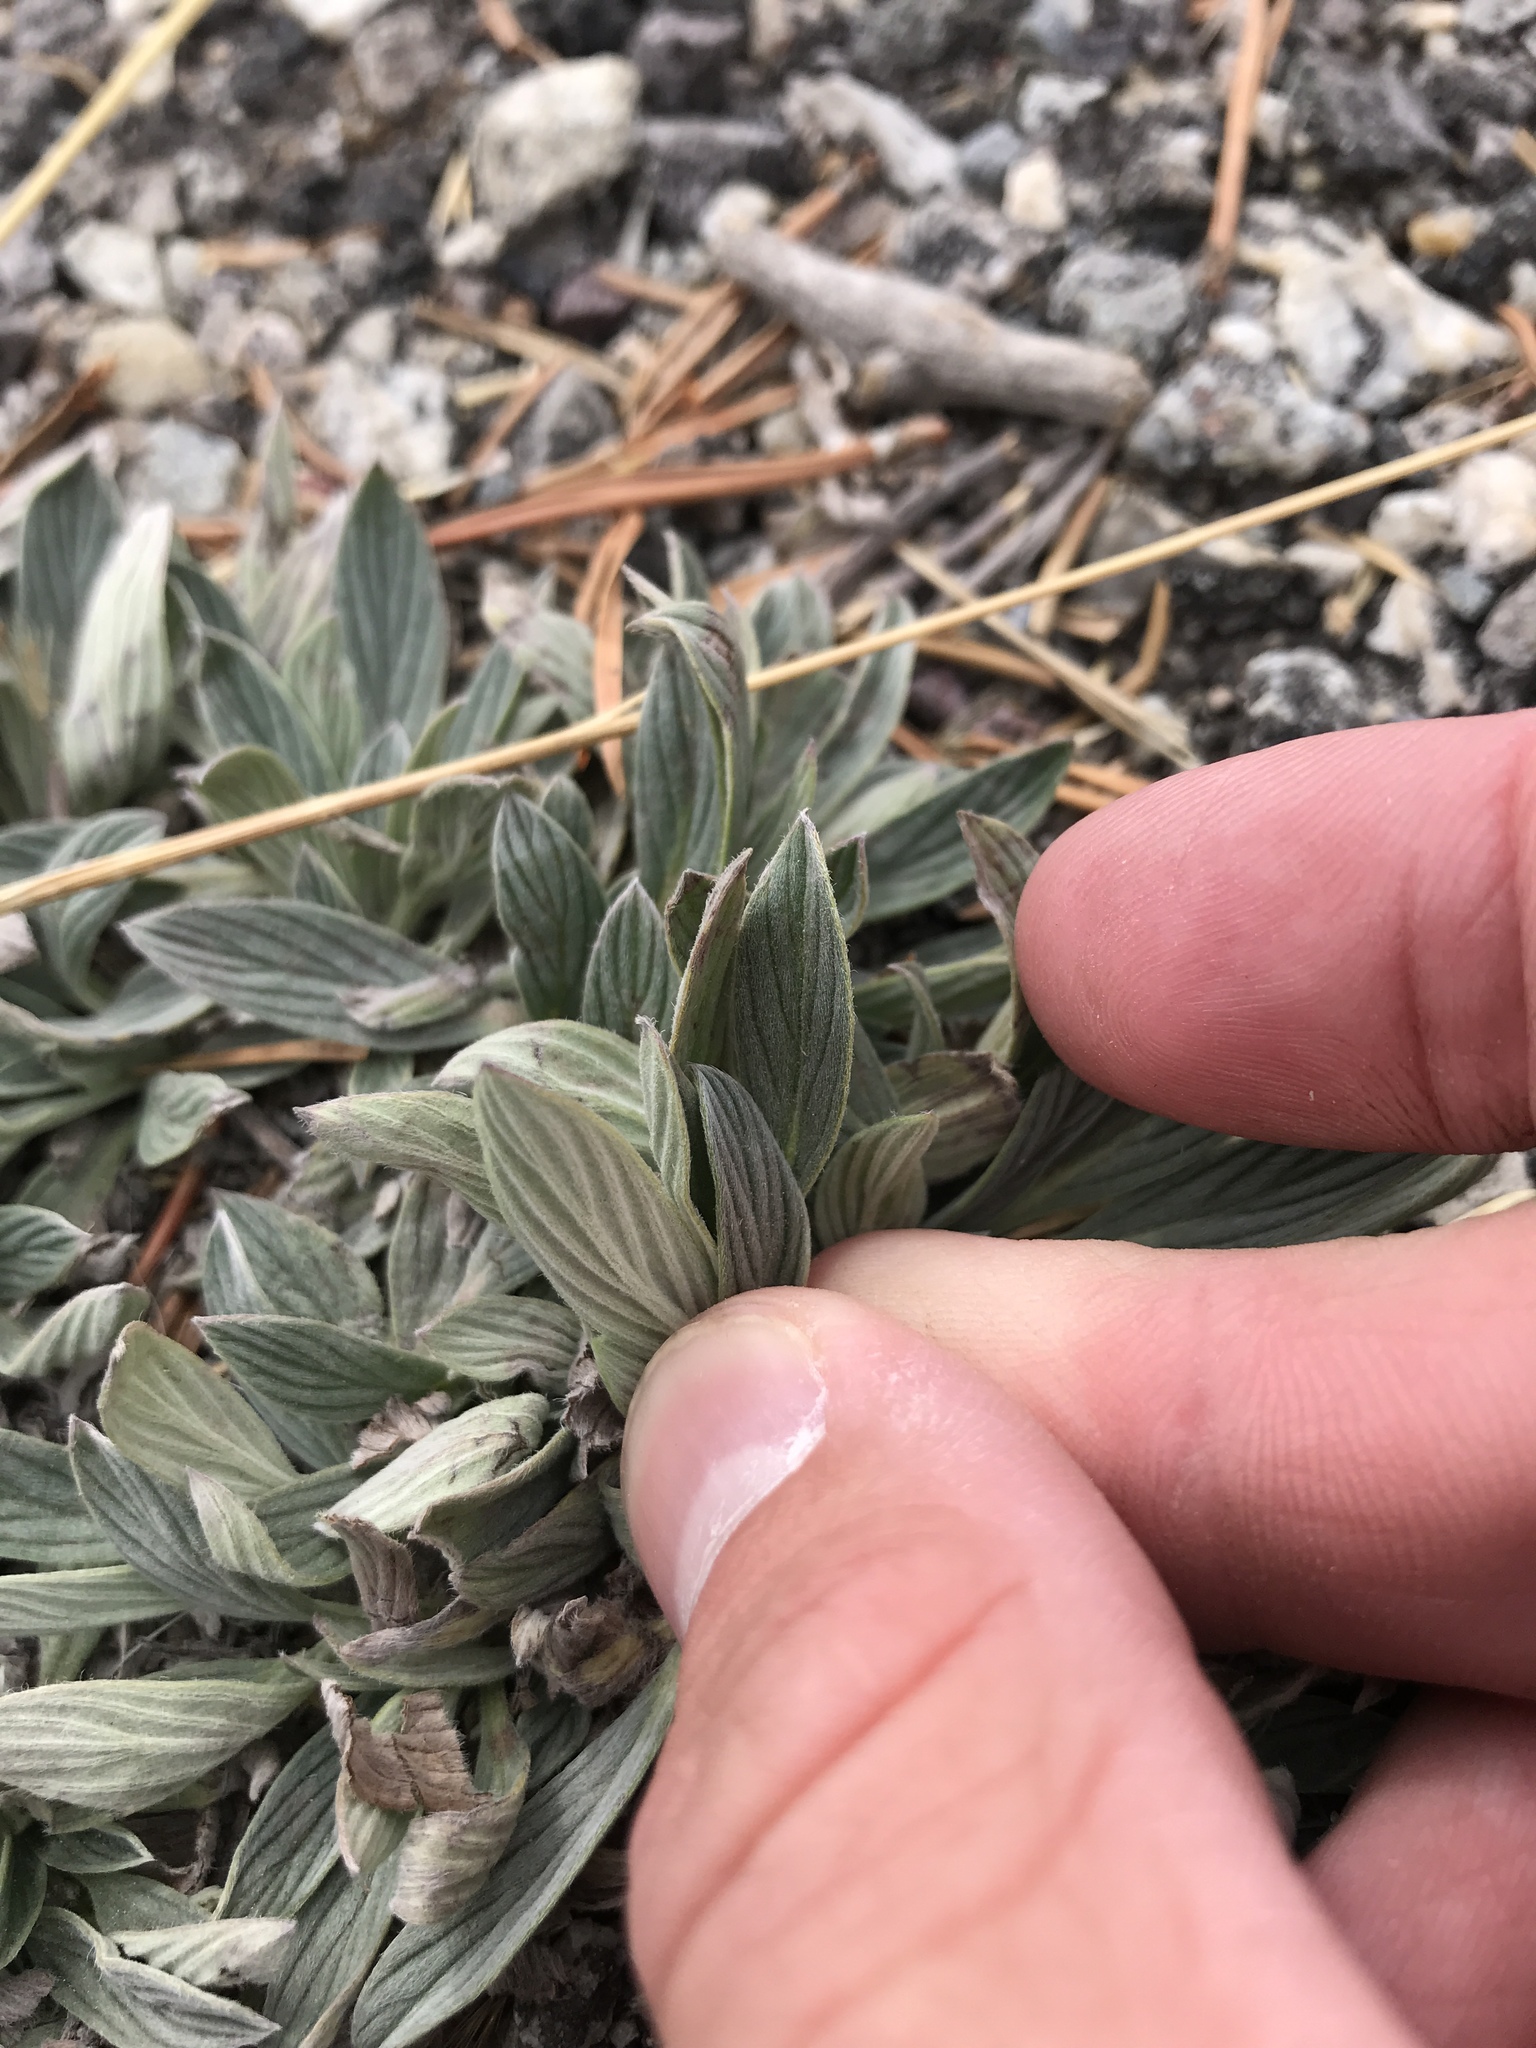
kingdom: Plantae
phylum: Tracheophyta
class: Magnoliopsida
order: Boraginales
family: Hydrophyllaceae
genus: Phacelia
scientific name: Phacelia hastata
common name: Silver-leaved phacelia
